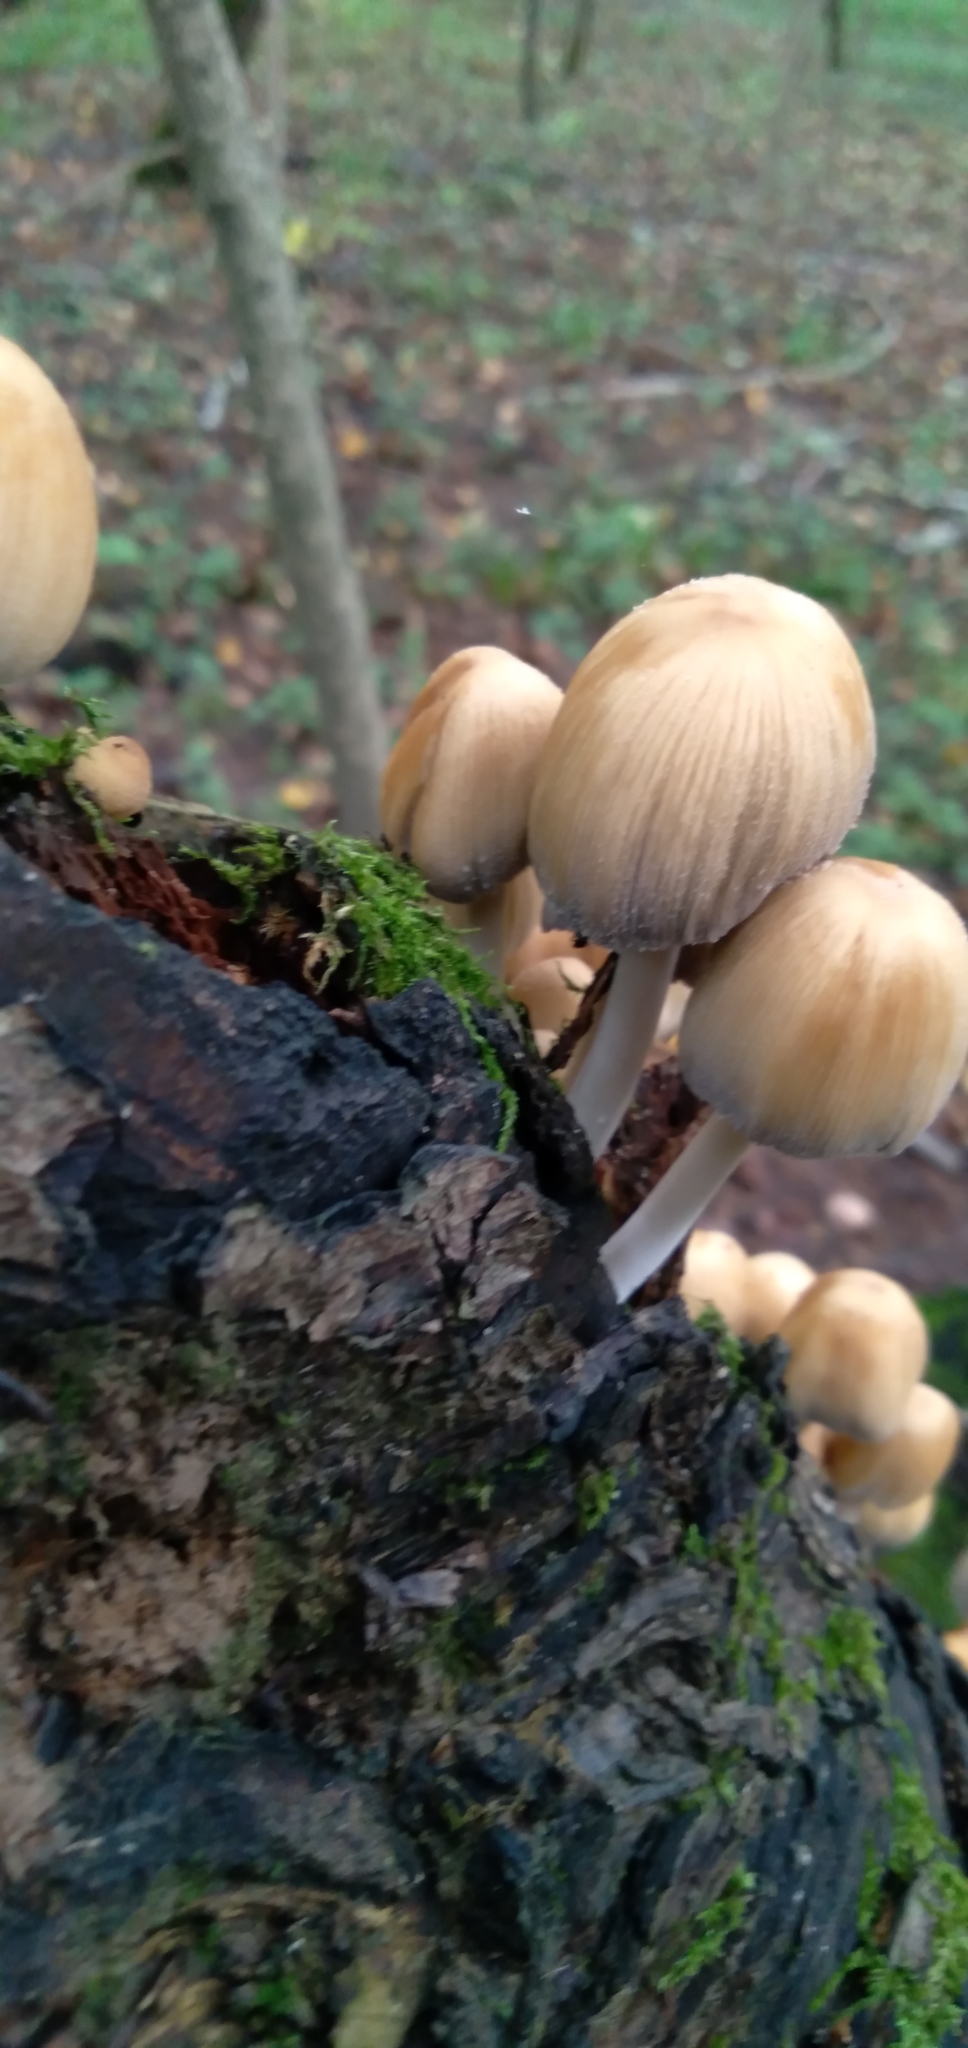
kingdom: Fungi
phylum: Basidiomycota
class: Agaricomycetes
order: Agaricales
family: Psathyrellaceae
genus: Coprinellus
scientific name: Coprinellus micaceus
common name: Glistening ink-cap
